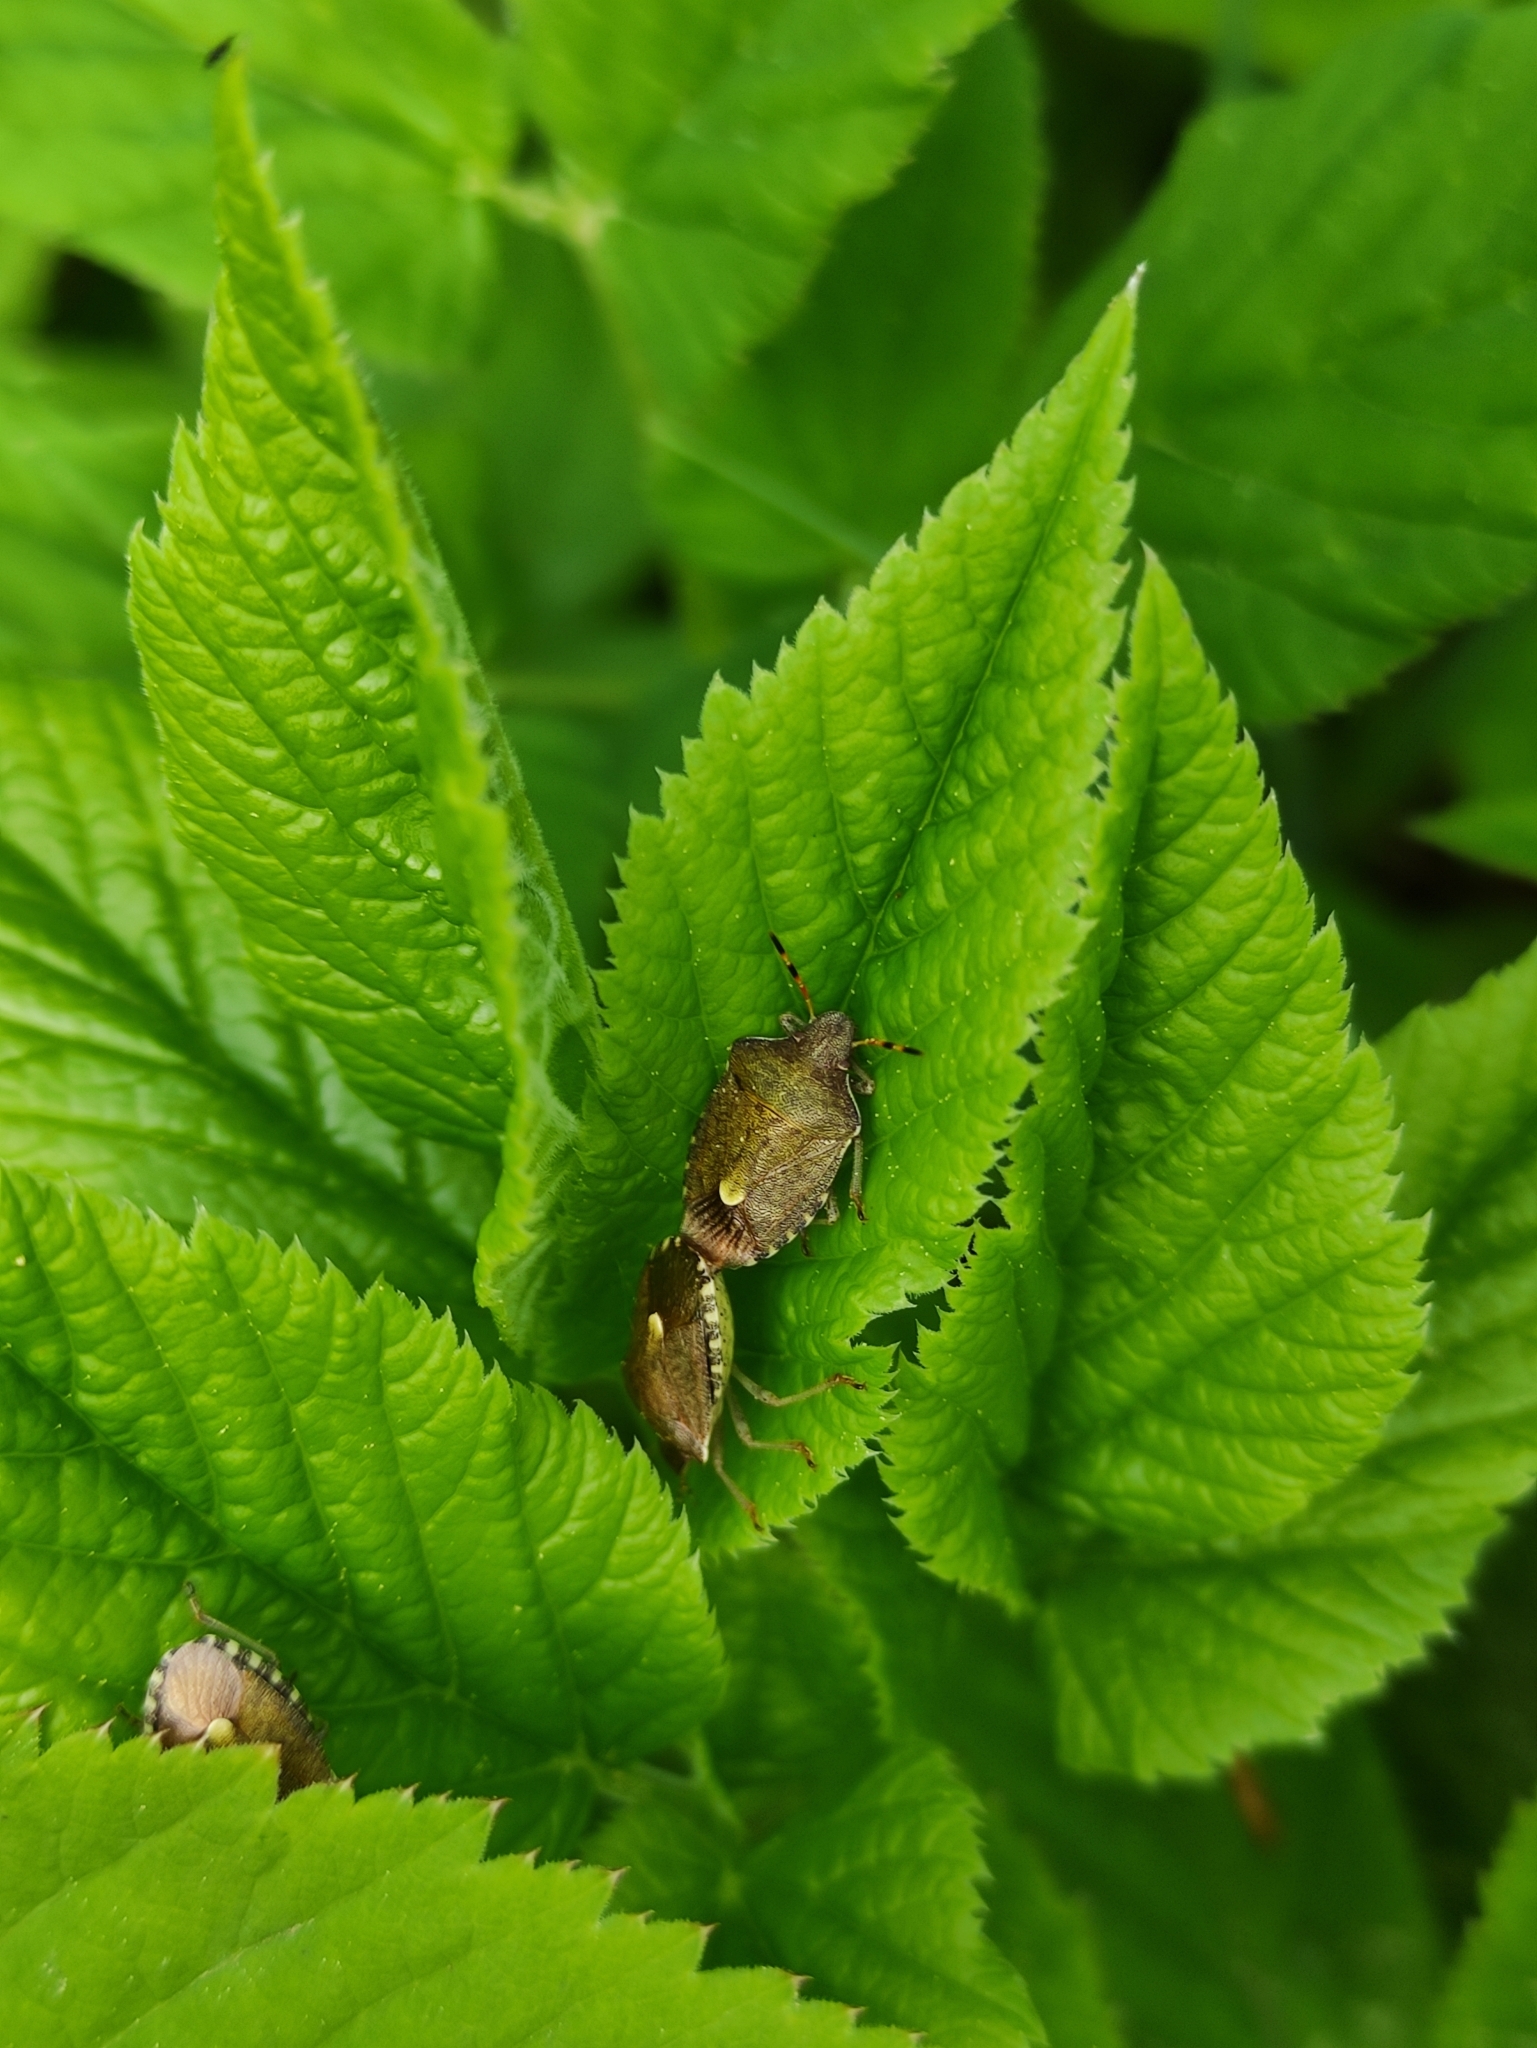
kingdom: Animalia
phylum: Arthropoda
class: Insecta
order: Hemiptera
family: Pentatomidae
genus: Holcostethus
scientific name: Holcostethus strictus
